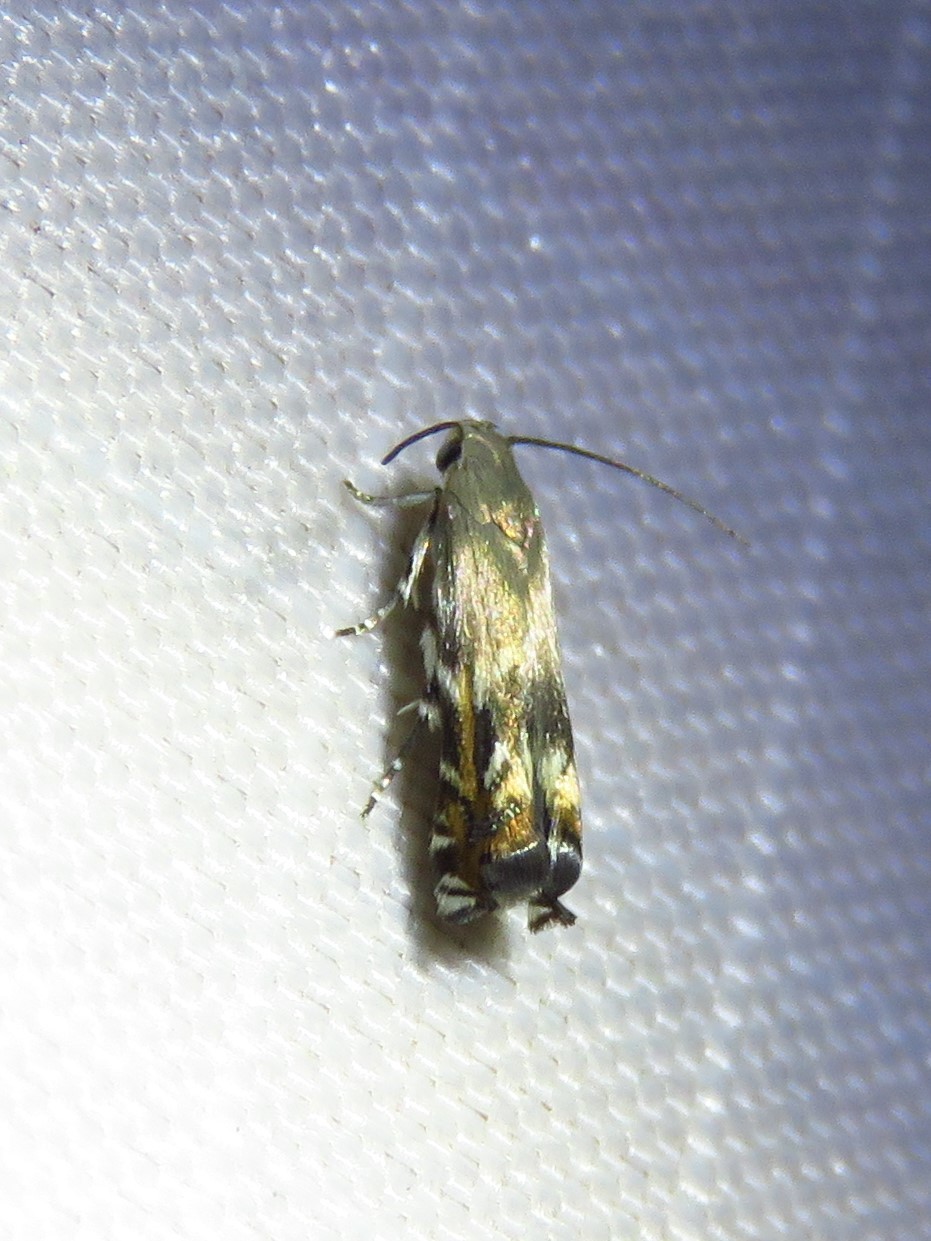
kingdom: Animalia
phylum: Arthropoda
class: Insecta
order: Lepidoptera
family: Gelechiidae
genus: Calliprora
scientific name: Calliprora sexstrigella
